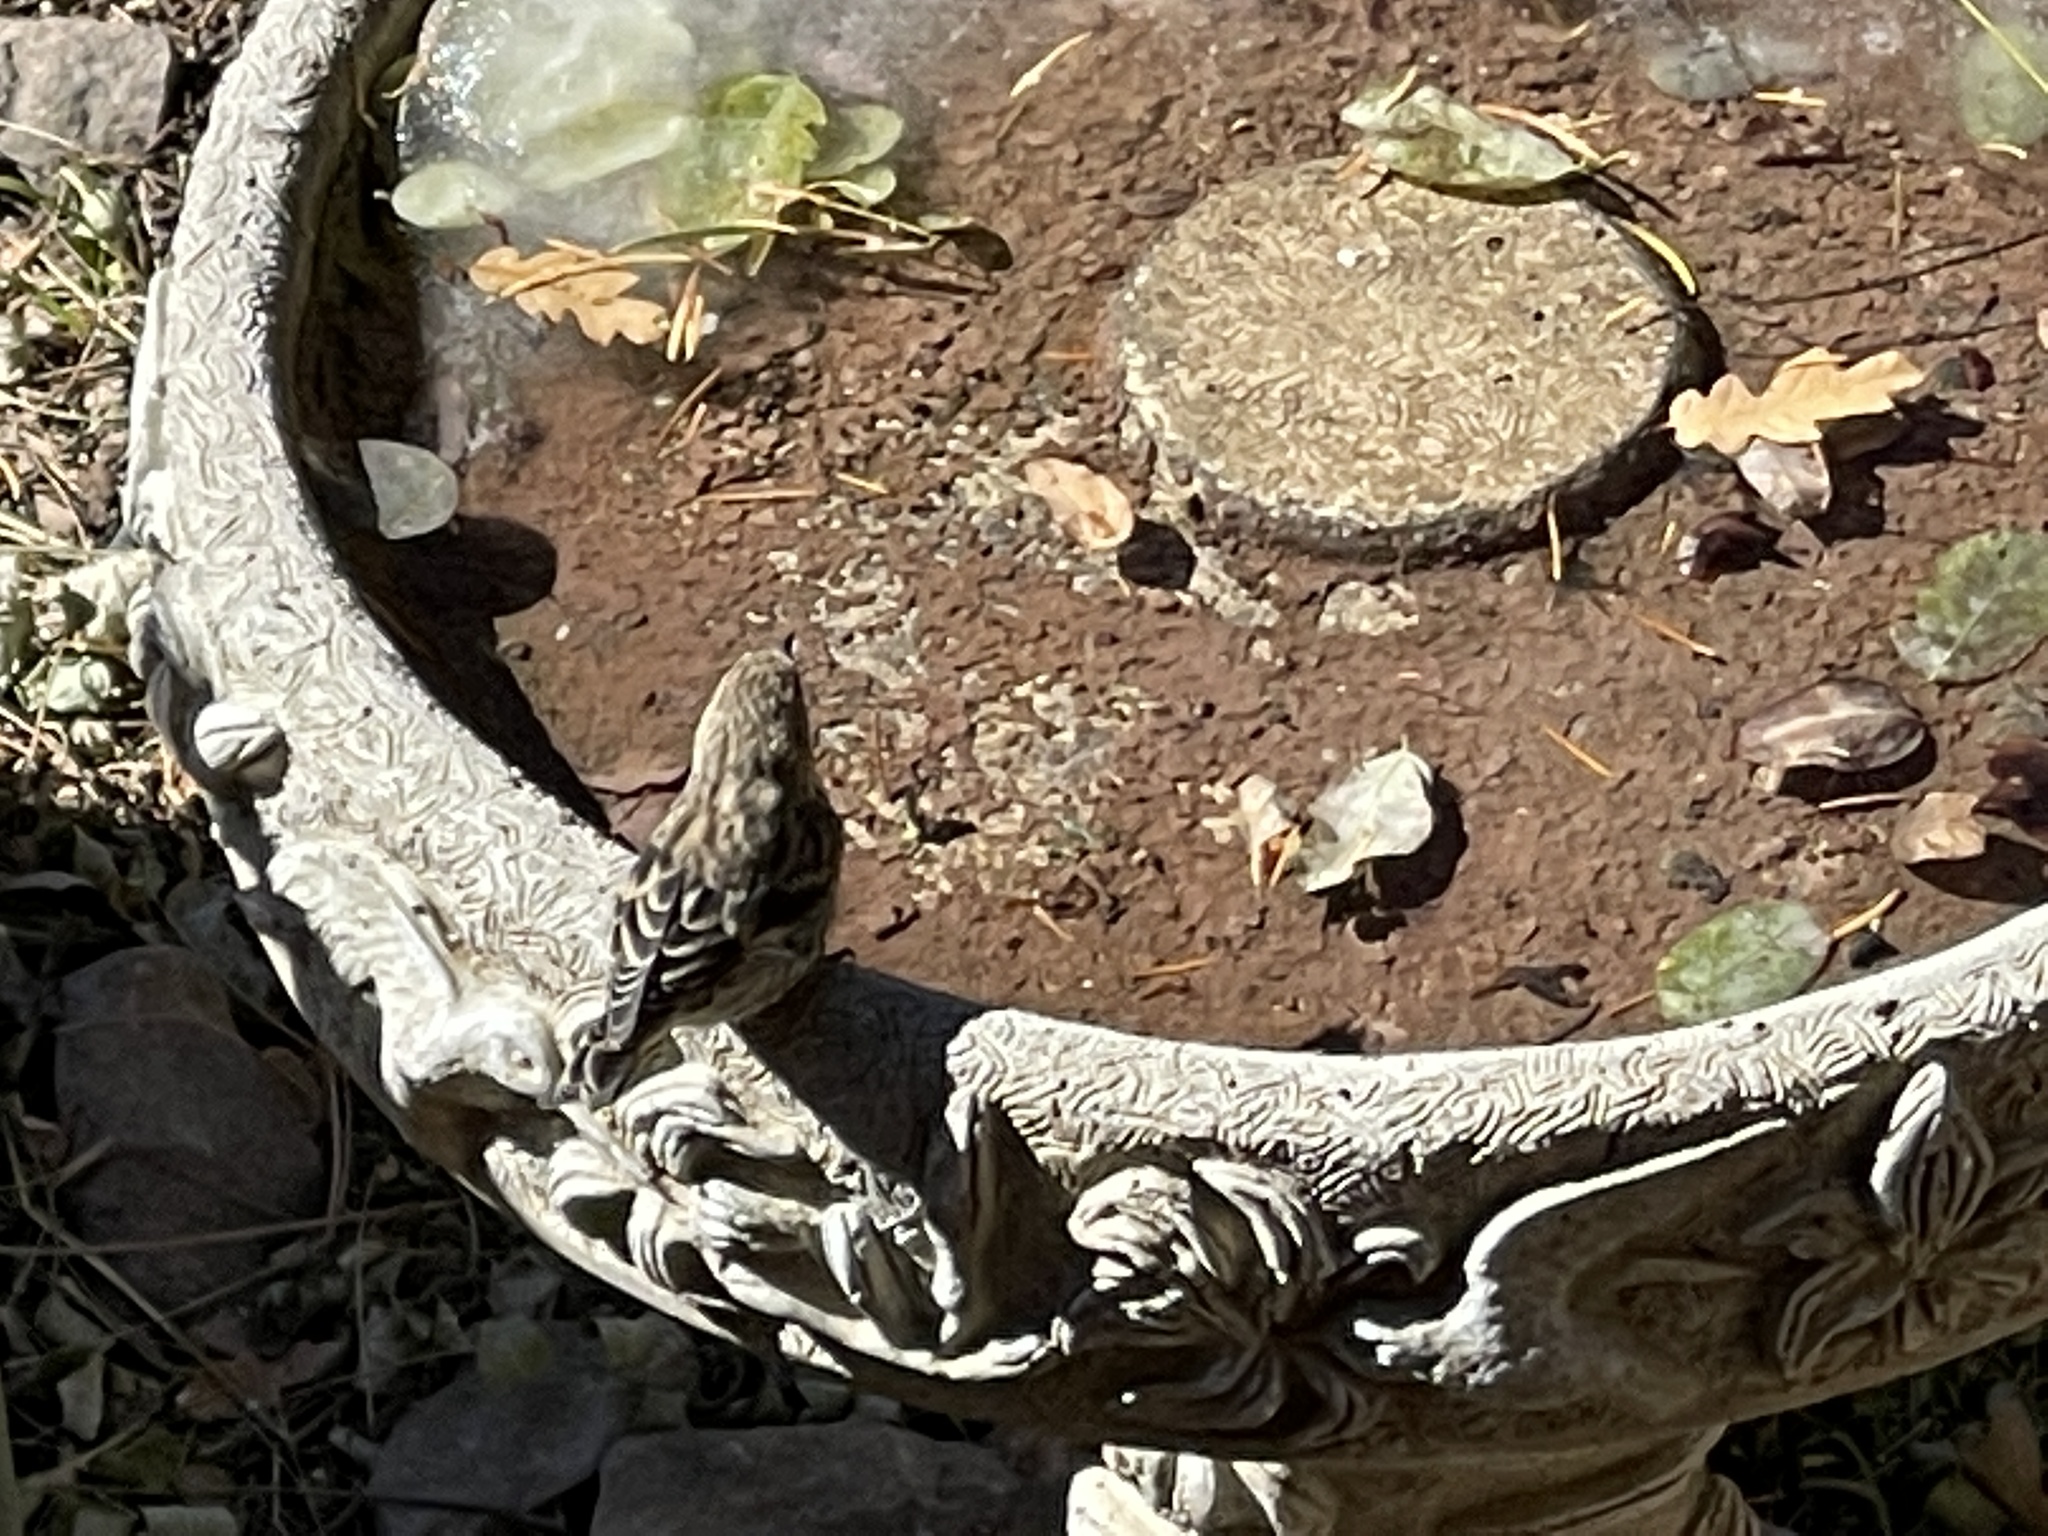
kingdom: Animalia
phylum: Chordata
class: Aves
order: Passeriformes
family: Fringillidae
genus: Spinus
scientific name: Spinus pinus
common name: Pine siskin
